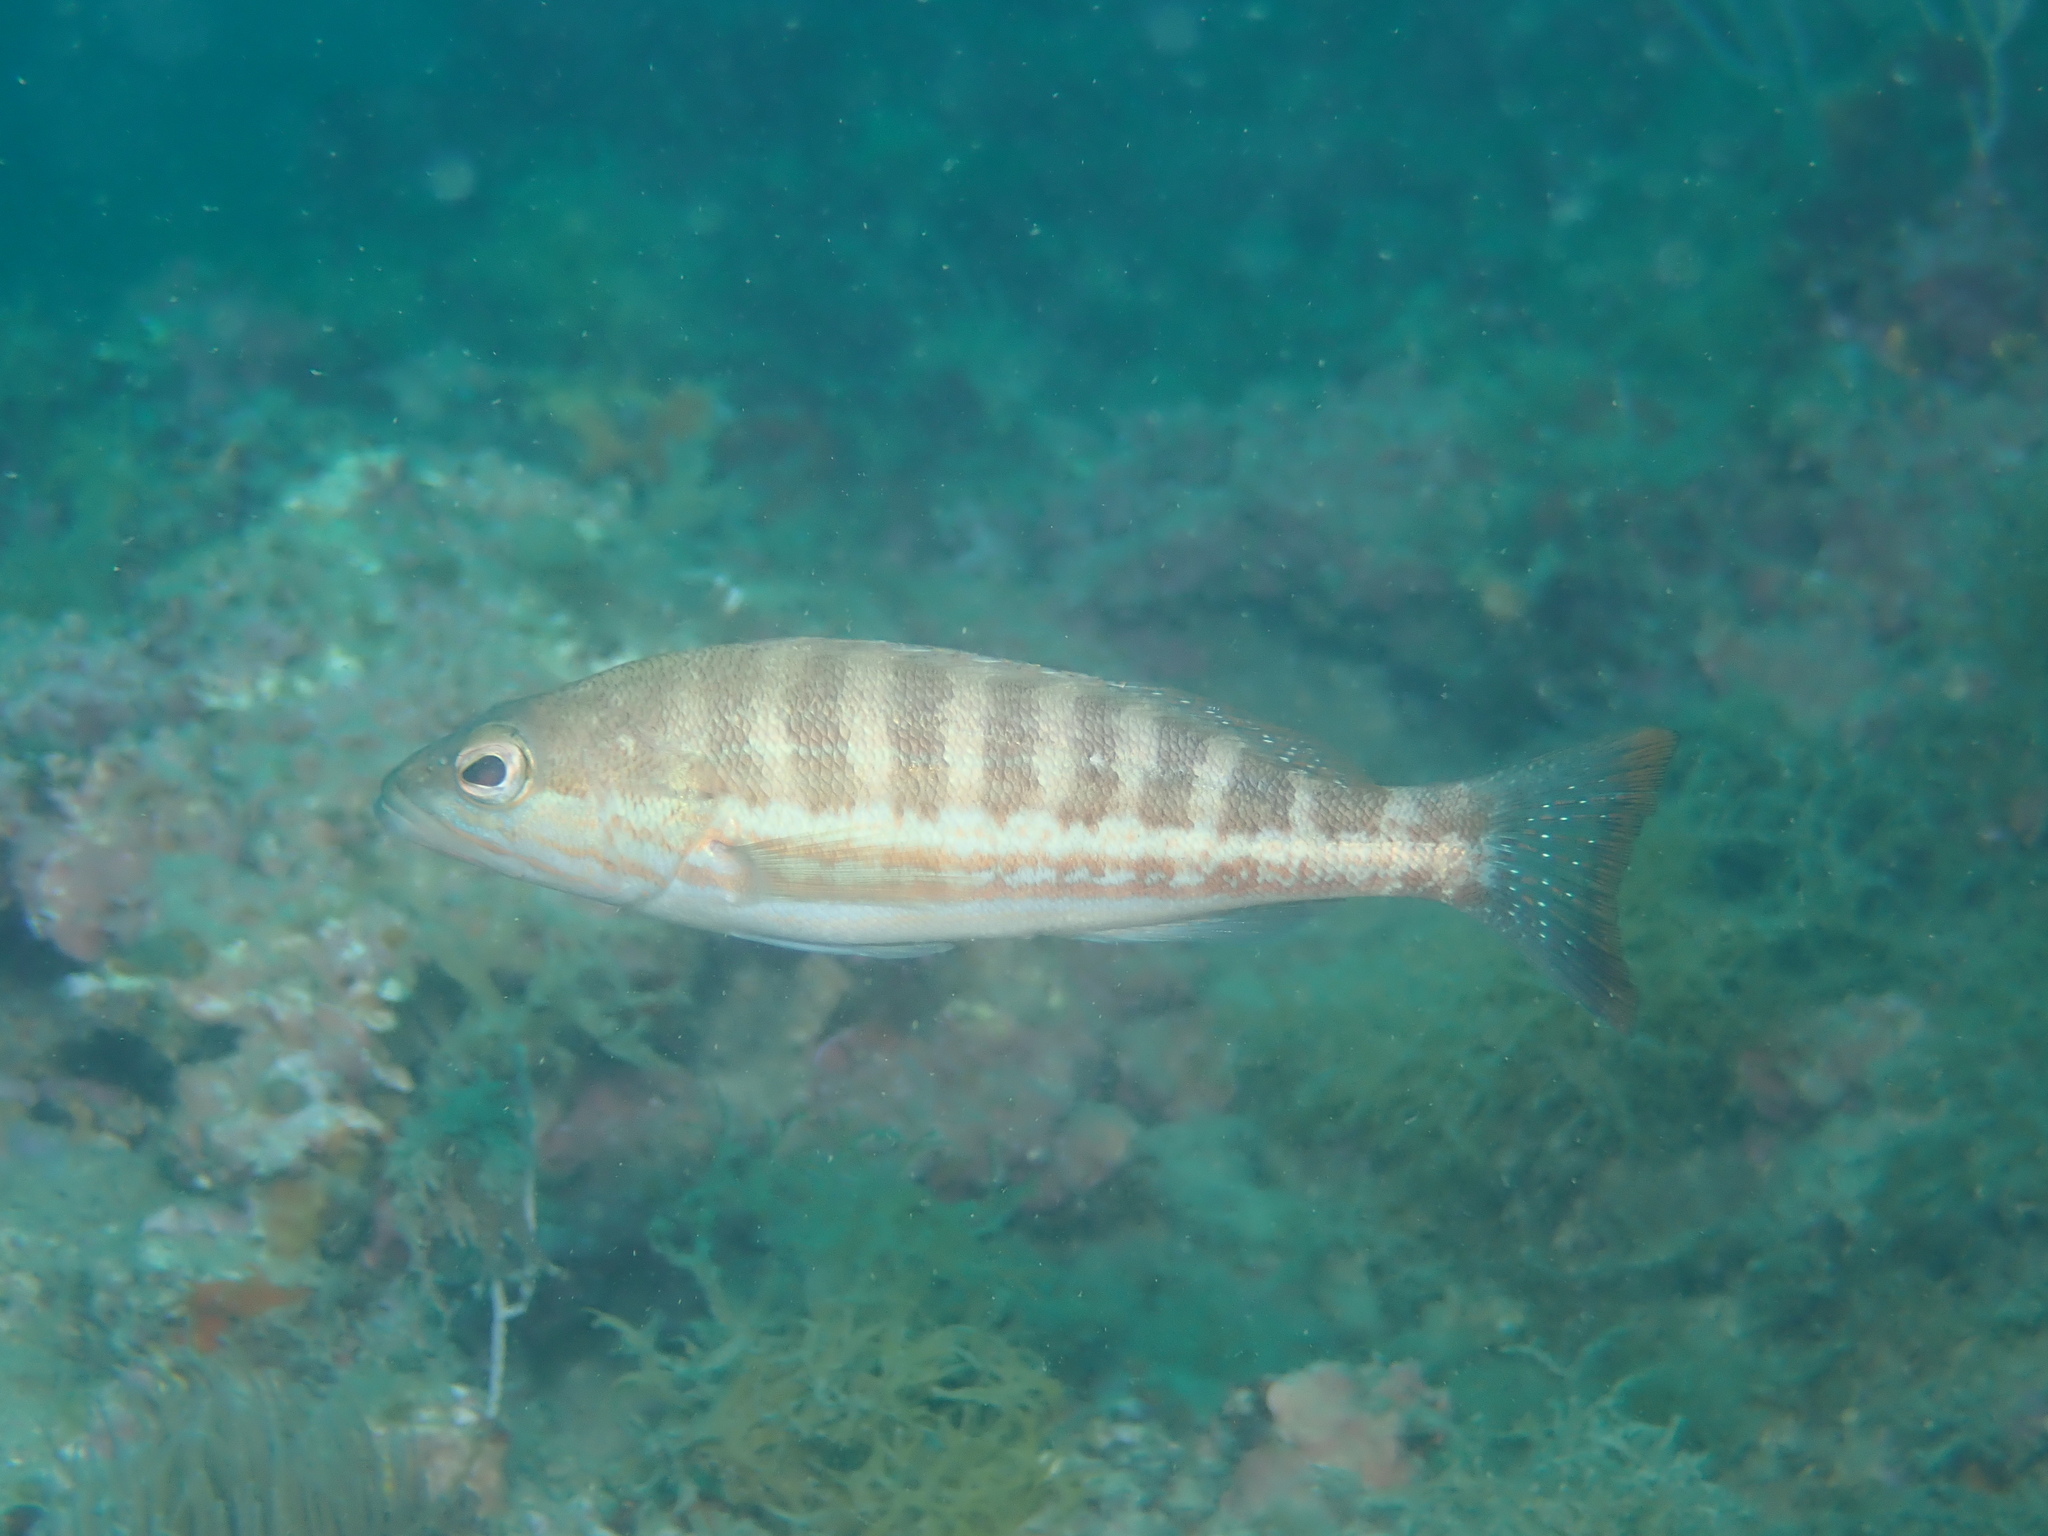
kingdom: Animalia
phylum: Chordata
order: Perciformes
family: Serranidae
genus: Serranus
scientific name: Serranus cabrilla
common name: Comber
